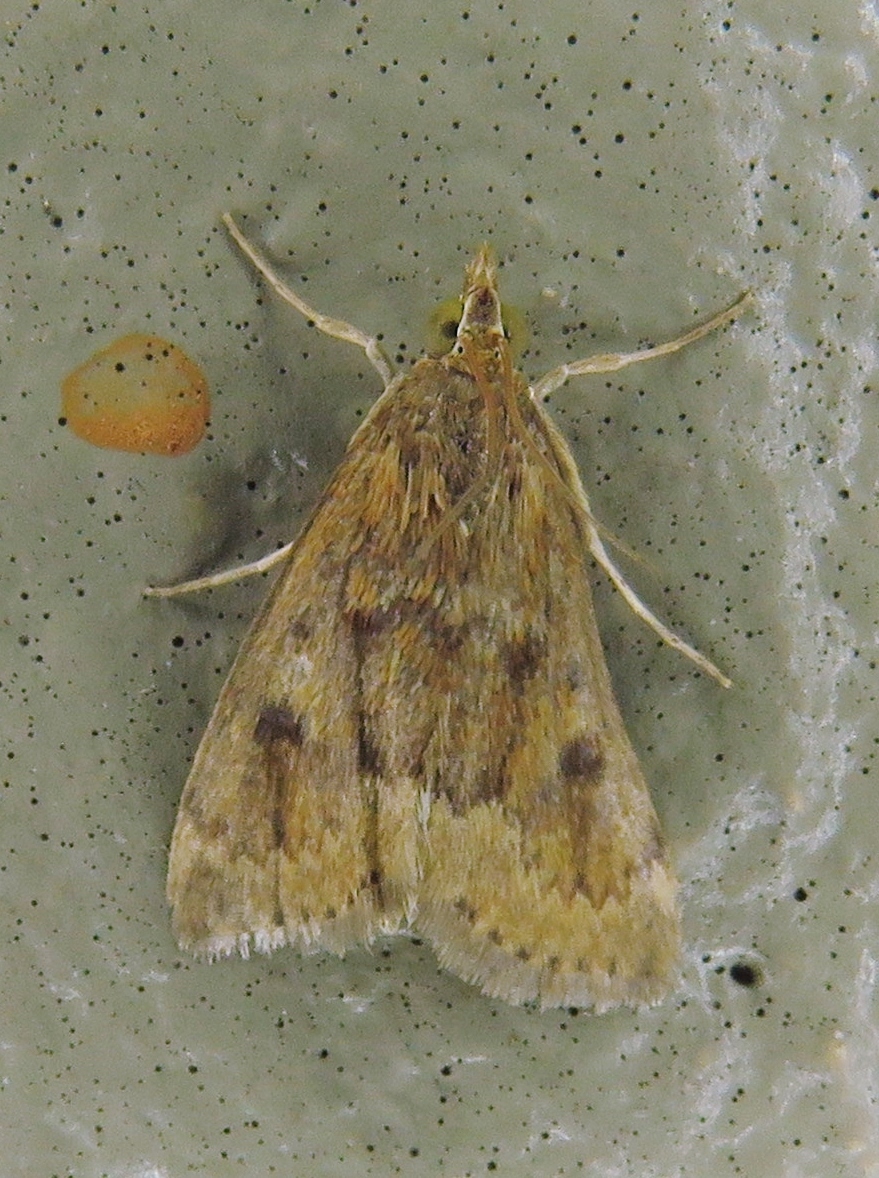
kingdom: Animalia
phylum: Arthropoda
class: Insecta
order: Lepidoptera
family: Crambidae
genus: Achyra
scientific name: Achyra rantalis
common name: Garden webworm
